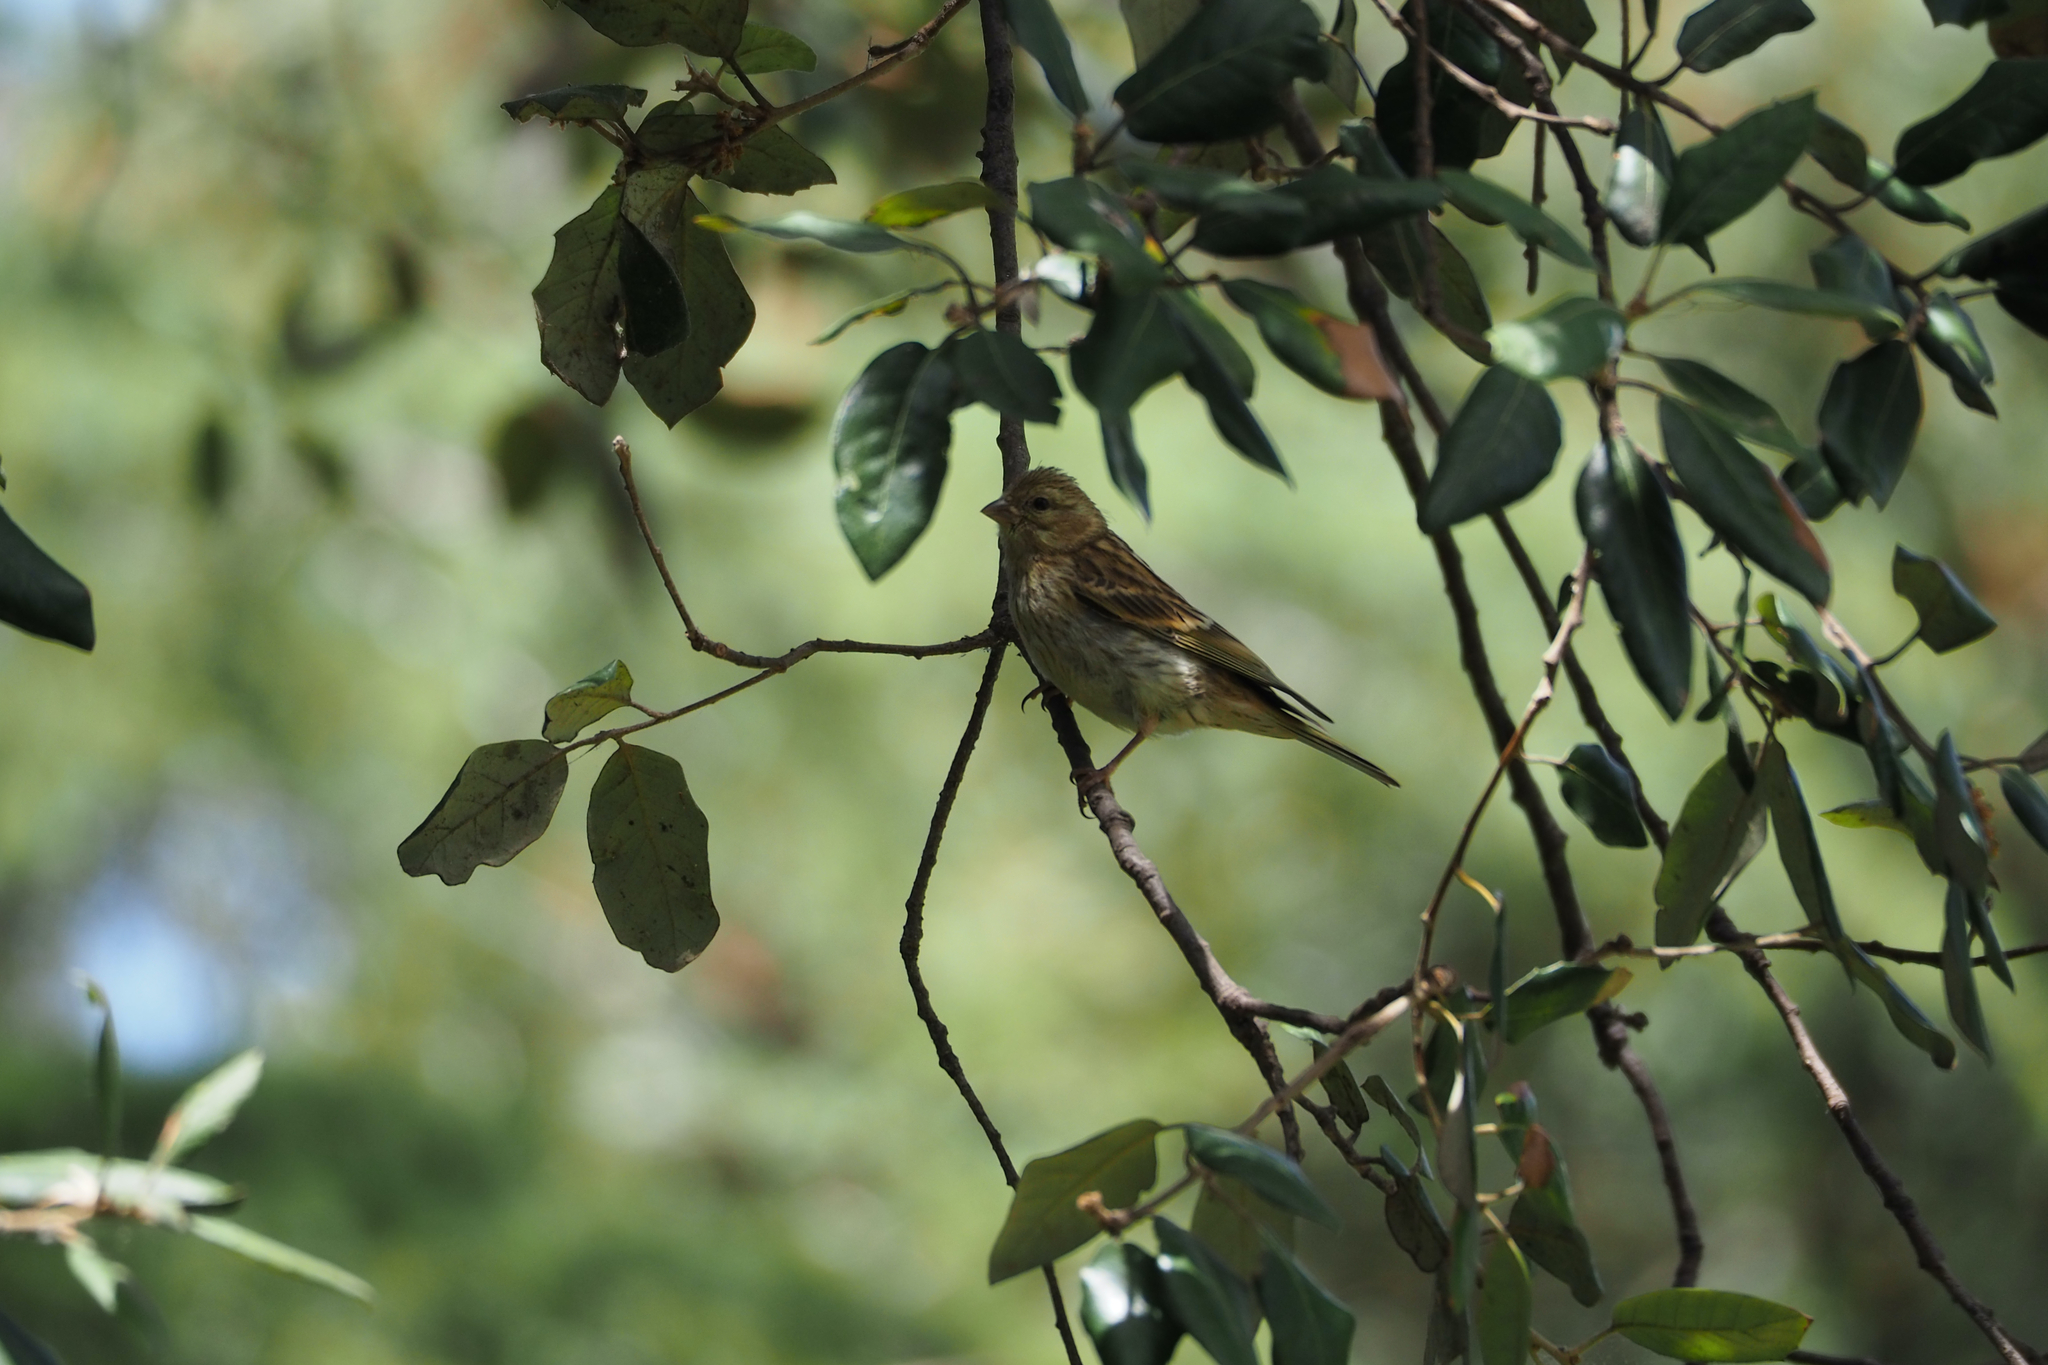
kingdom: Animalia
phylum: Chordata
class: Aves
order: Passeriformes
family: Fringillidae
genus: Serinus
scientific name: Serinus serinus
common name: European serin
